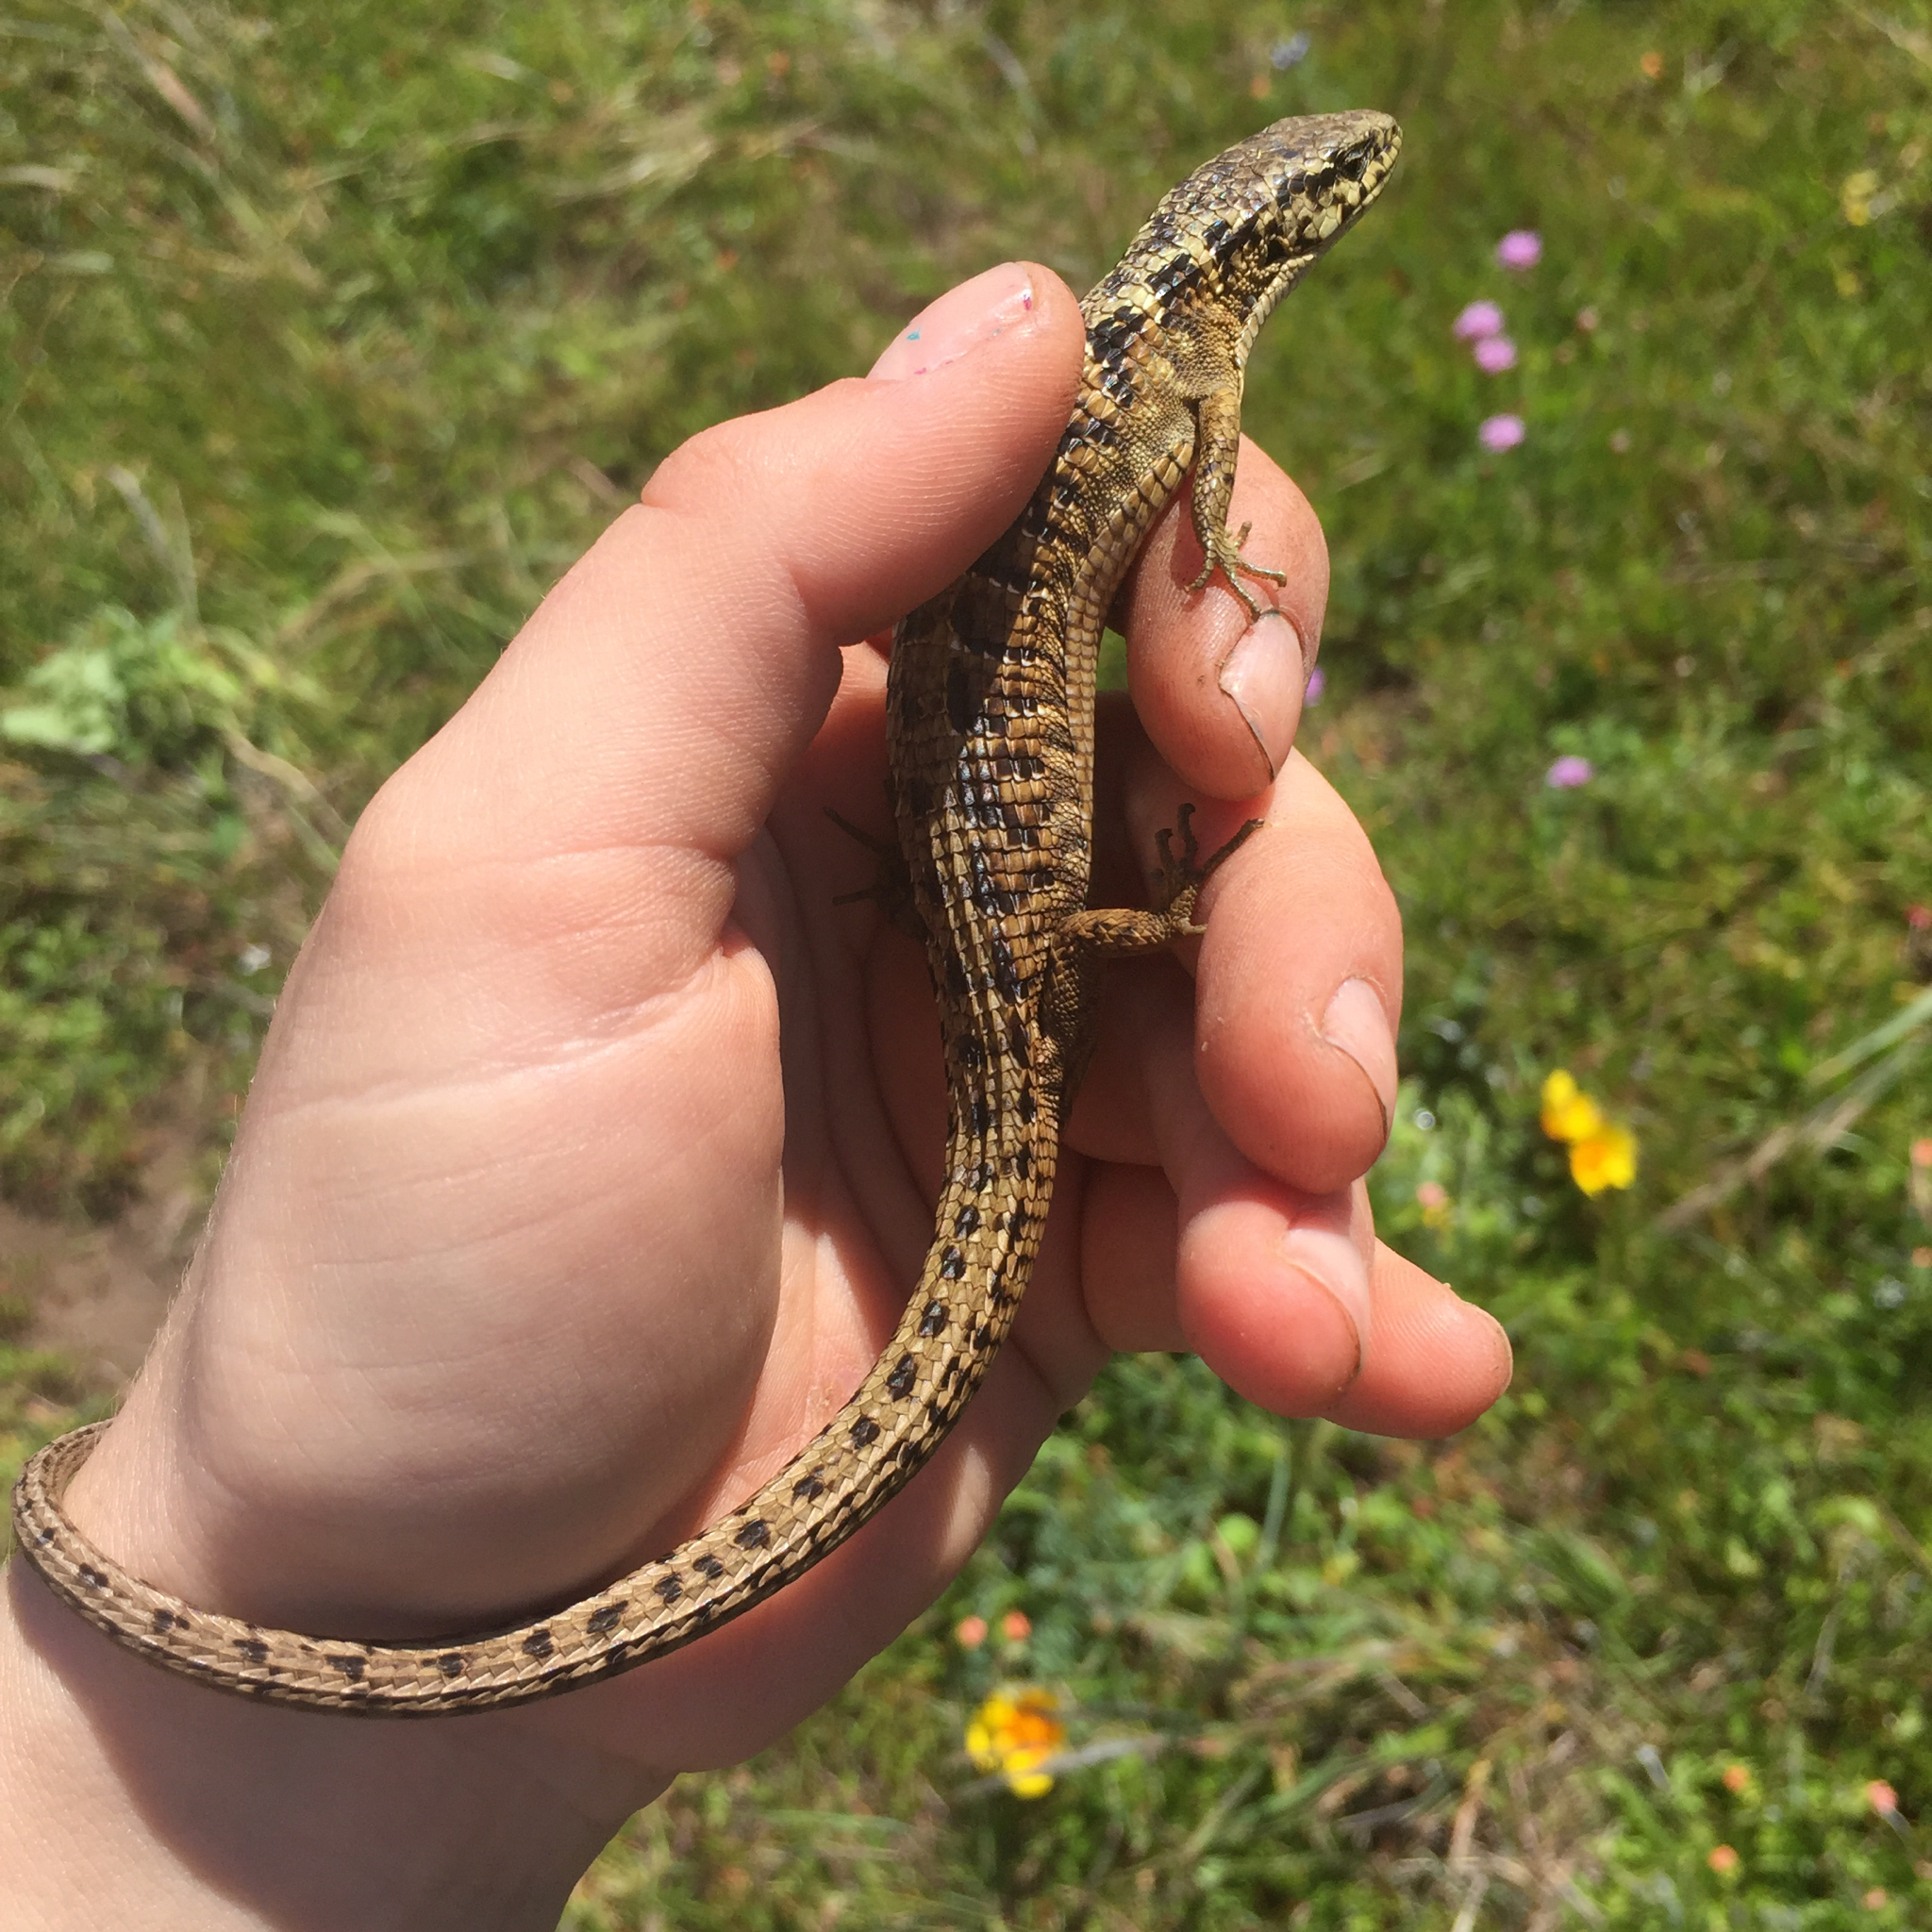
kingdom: Animalia
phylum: Chordata
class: Squamata
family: Anguidae
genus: Elgaria
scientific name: Elgaria coerulea
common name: Northern alligator lizard
